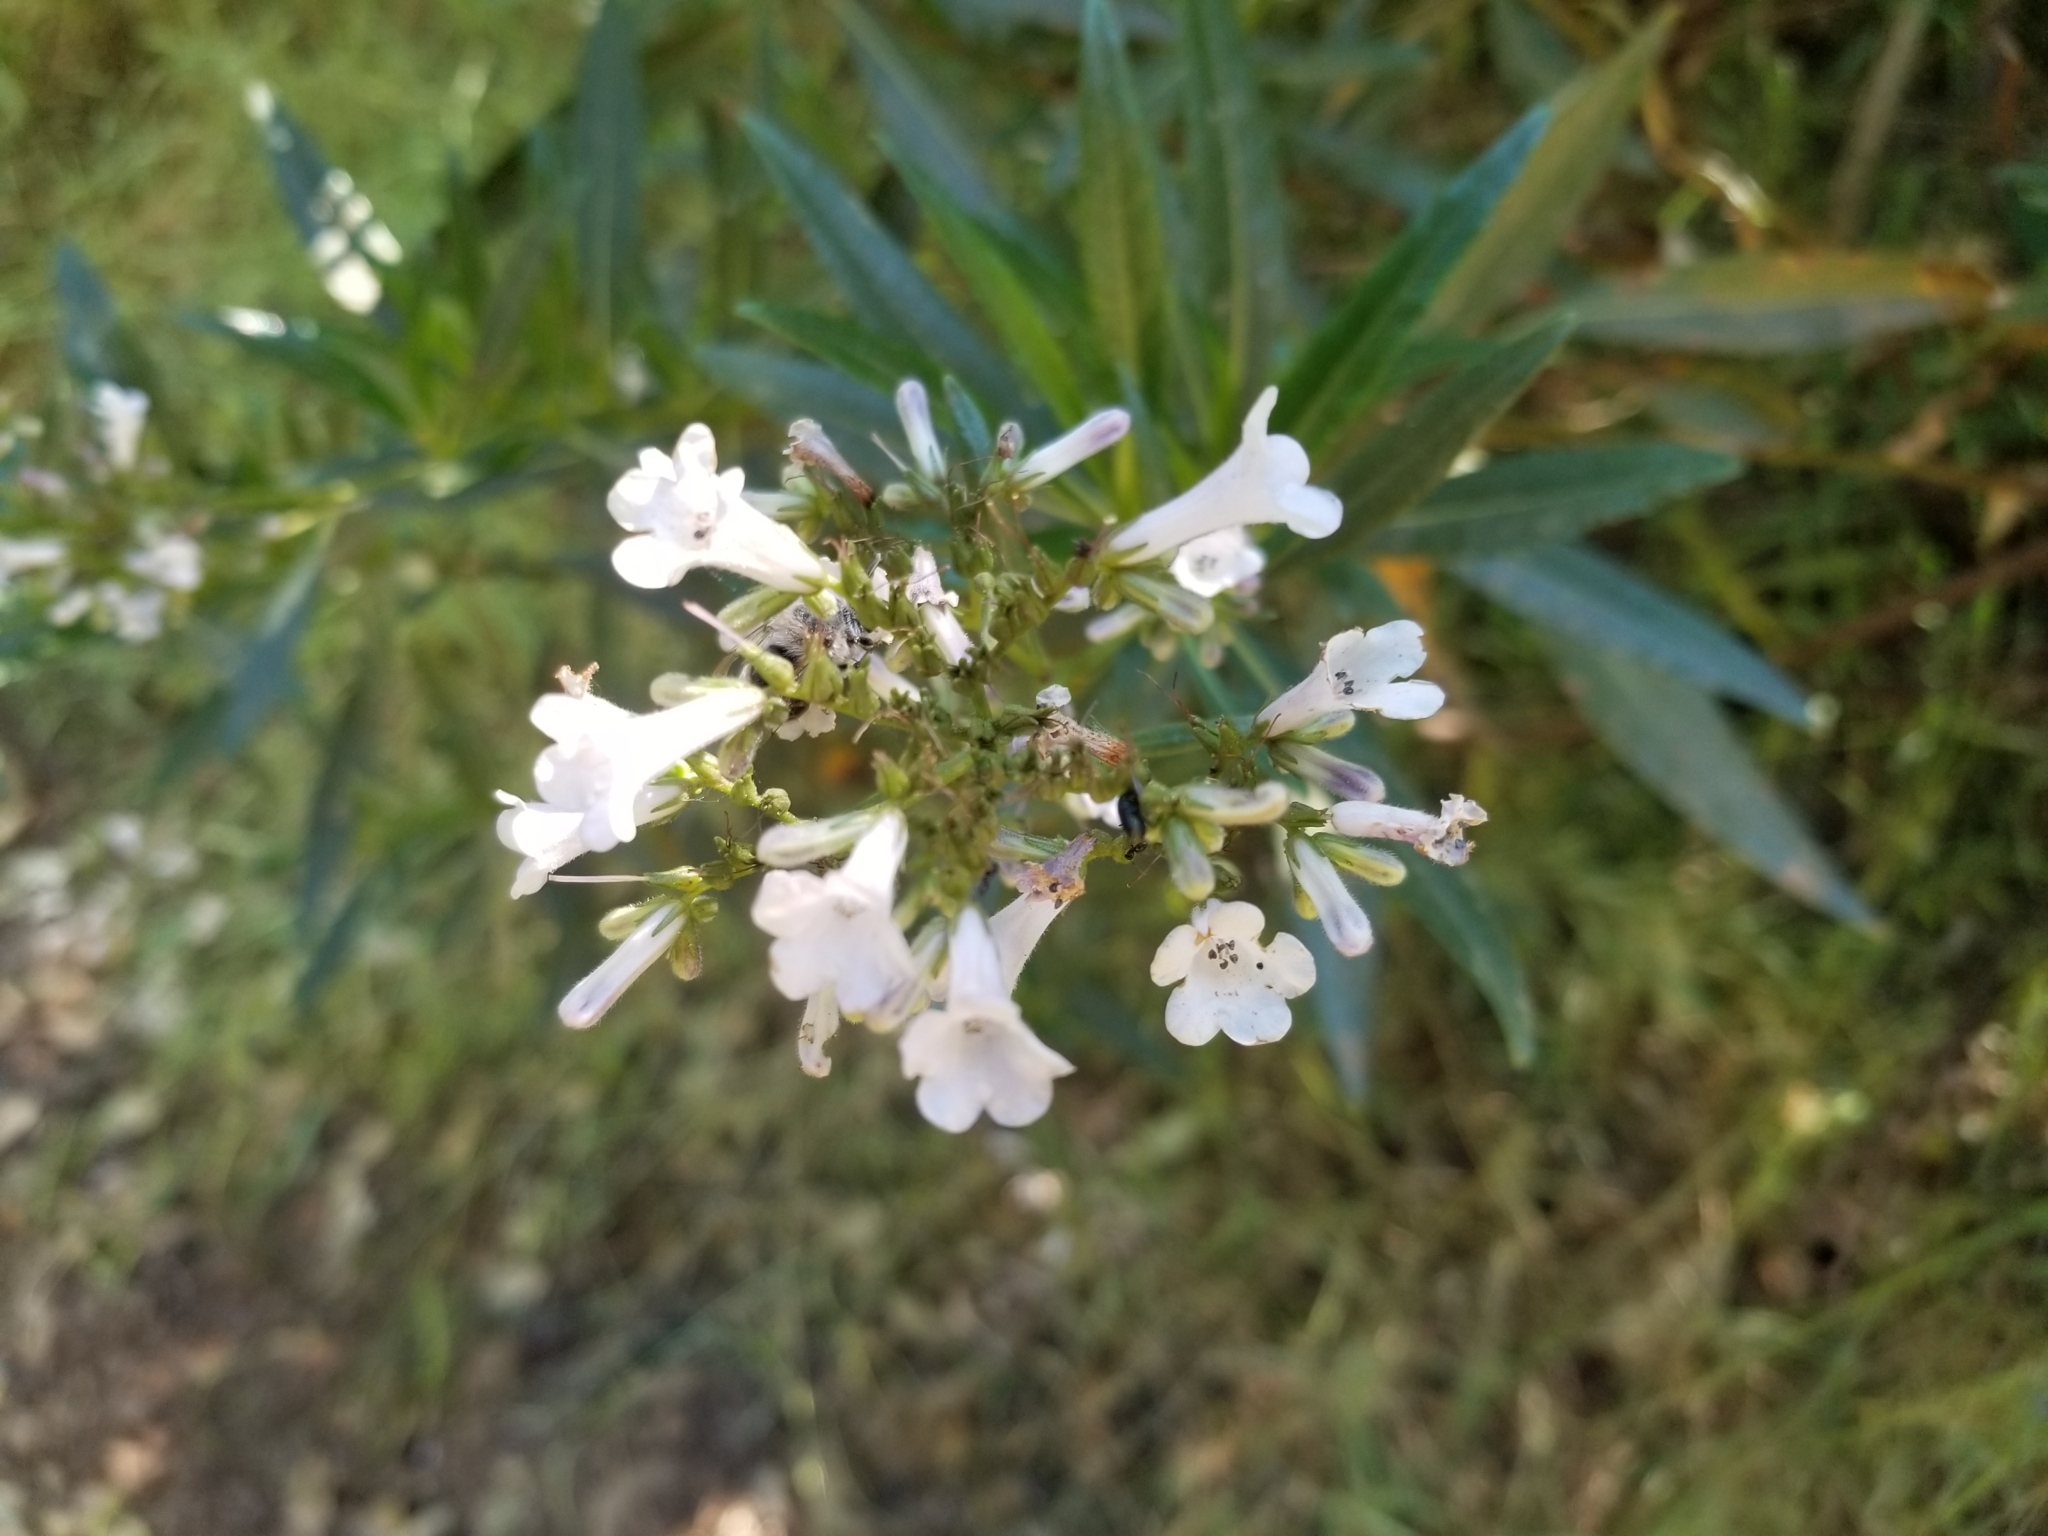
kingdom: Plantae
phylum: Tracheophyta
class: Magnoliopsida
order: Boraginales
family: Namaceae
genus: Eriodictyon
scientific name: Eriodictyon californicum
